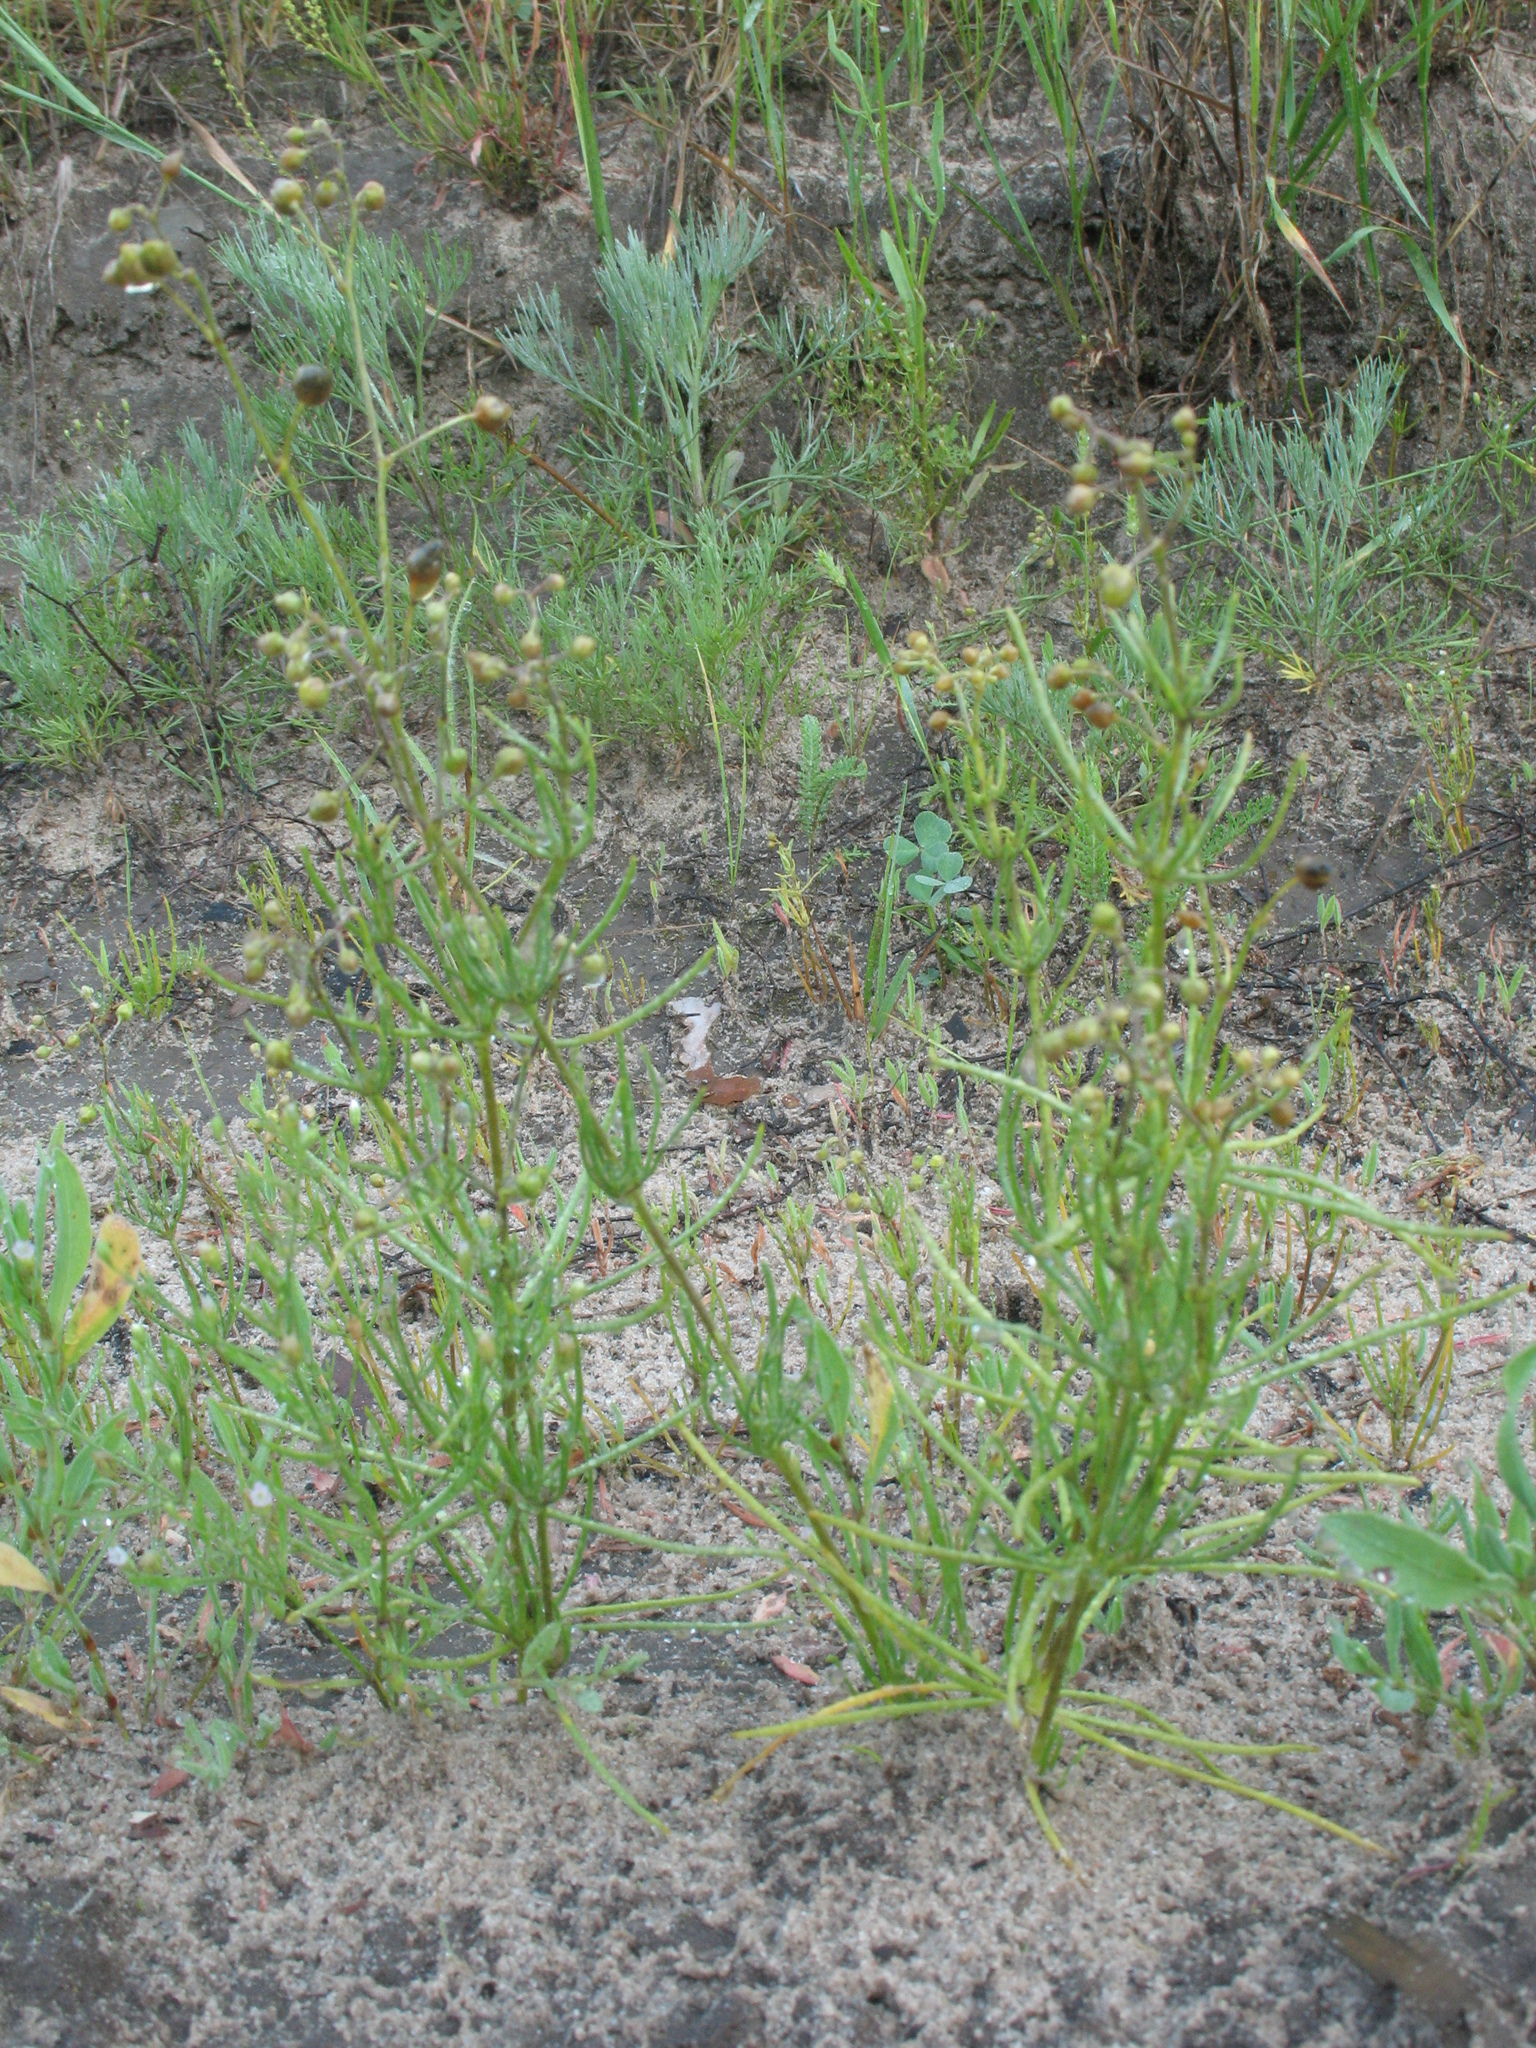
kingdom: Plantae
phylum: Tracheophyta
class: Magnoliopsida
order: Caryophyllales
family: Caryophyllaceae
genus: Spergula
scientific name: Spergula arvensis
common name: Corn spurrey
